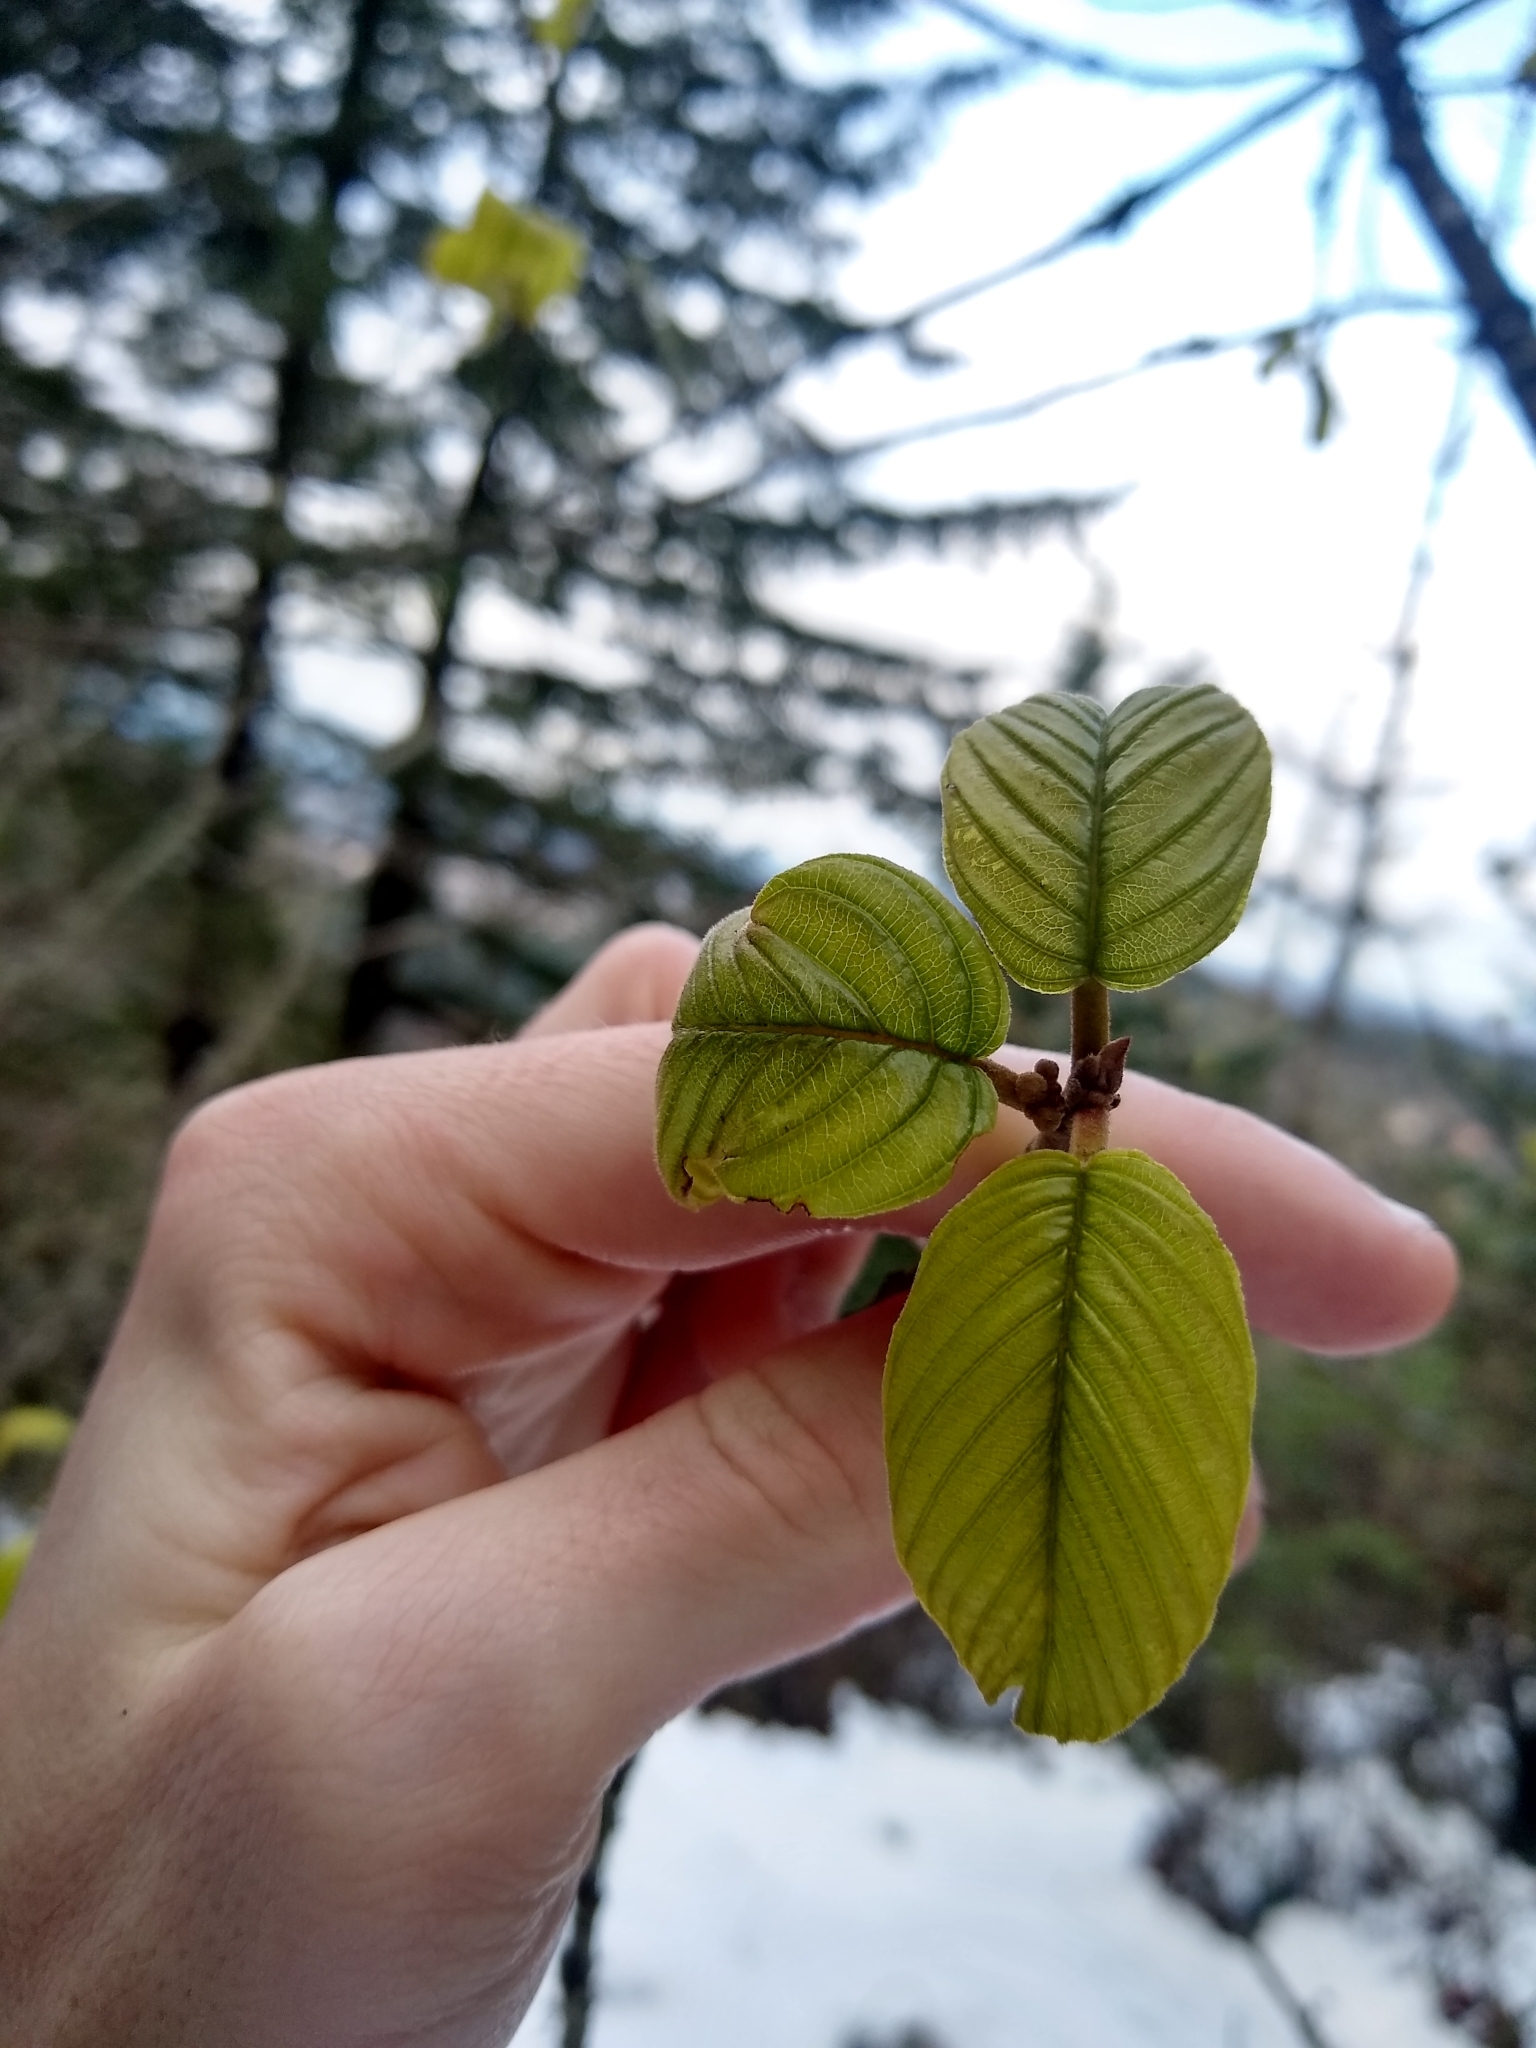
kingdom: Plantae
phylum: Tracheophyta
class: Magnoliopsida
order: Rosales
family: Rhamnaceae
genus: Frangula
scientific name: Frangula purshiana
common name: Cascara buckthorn
